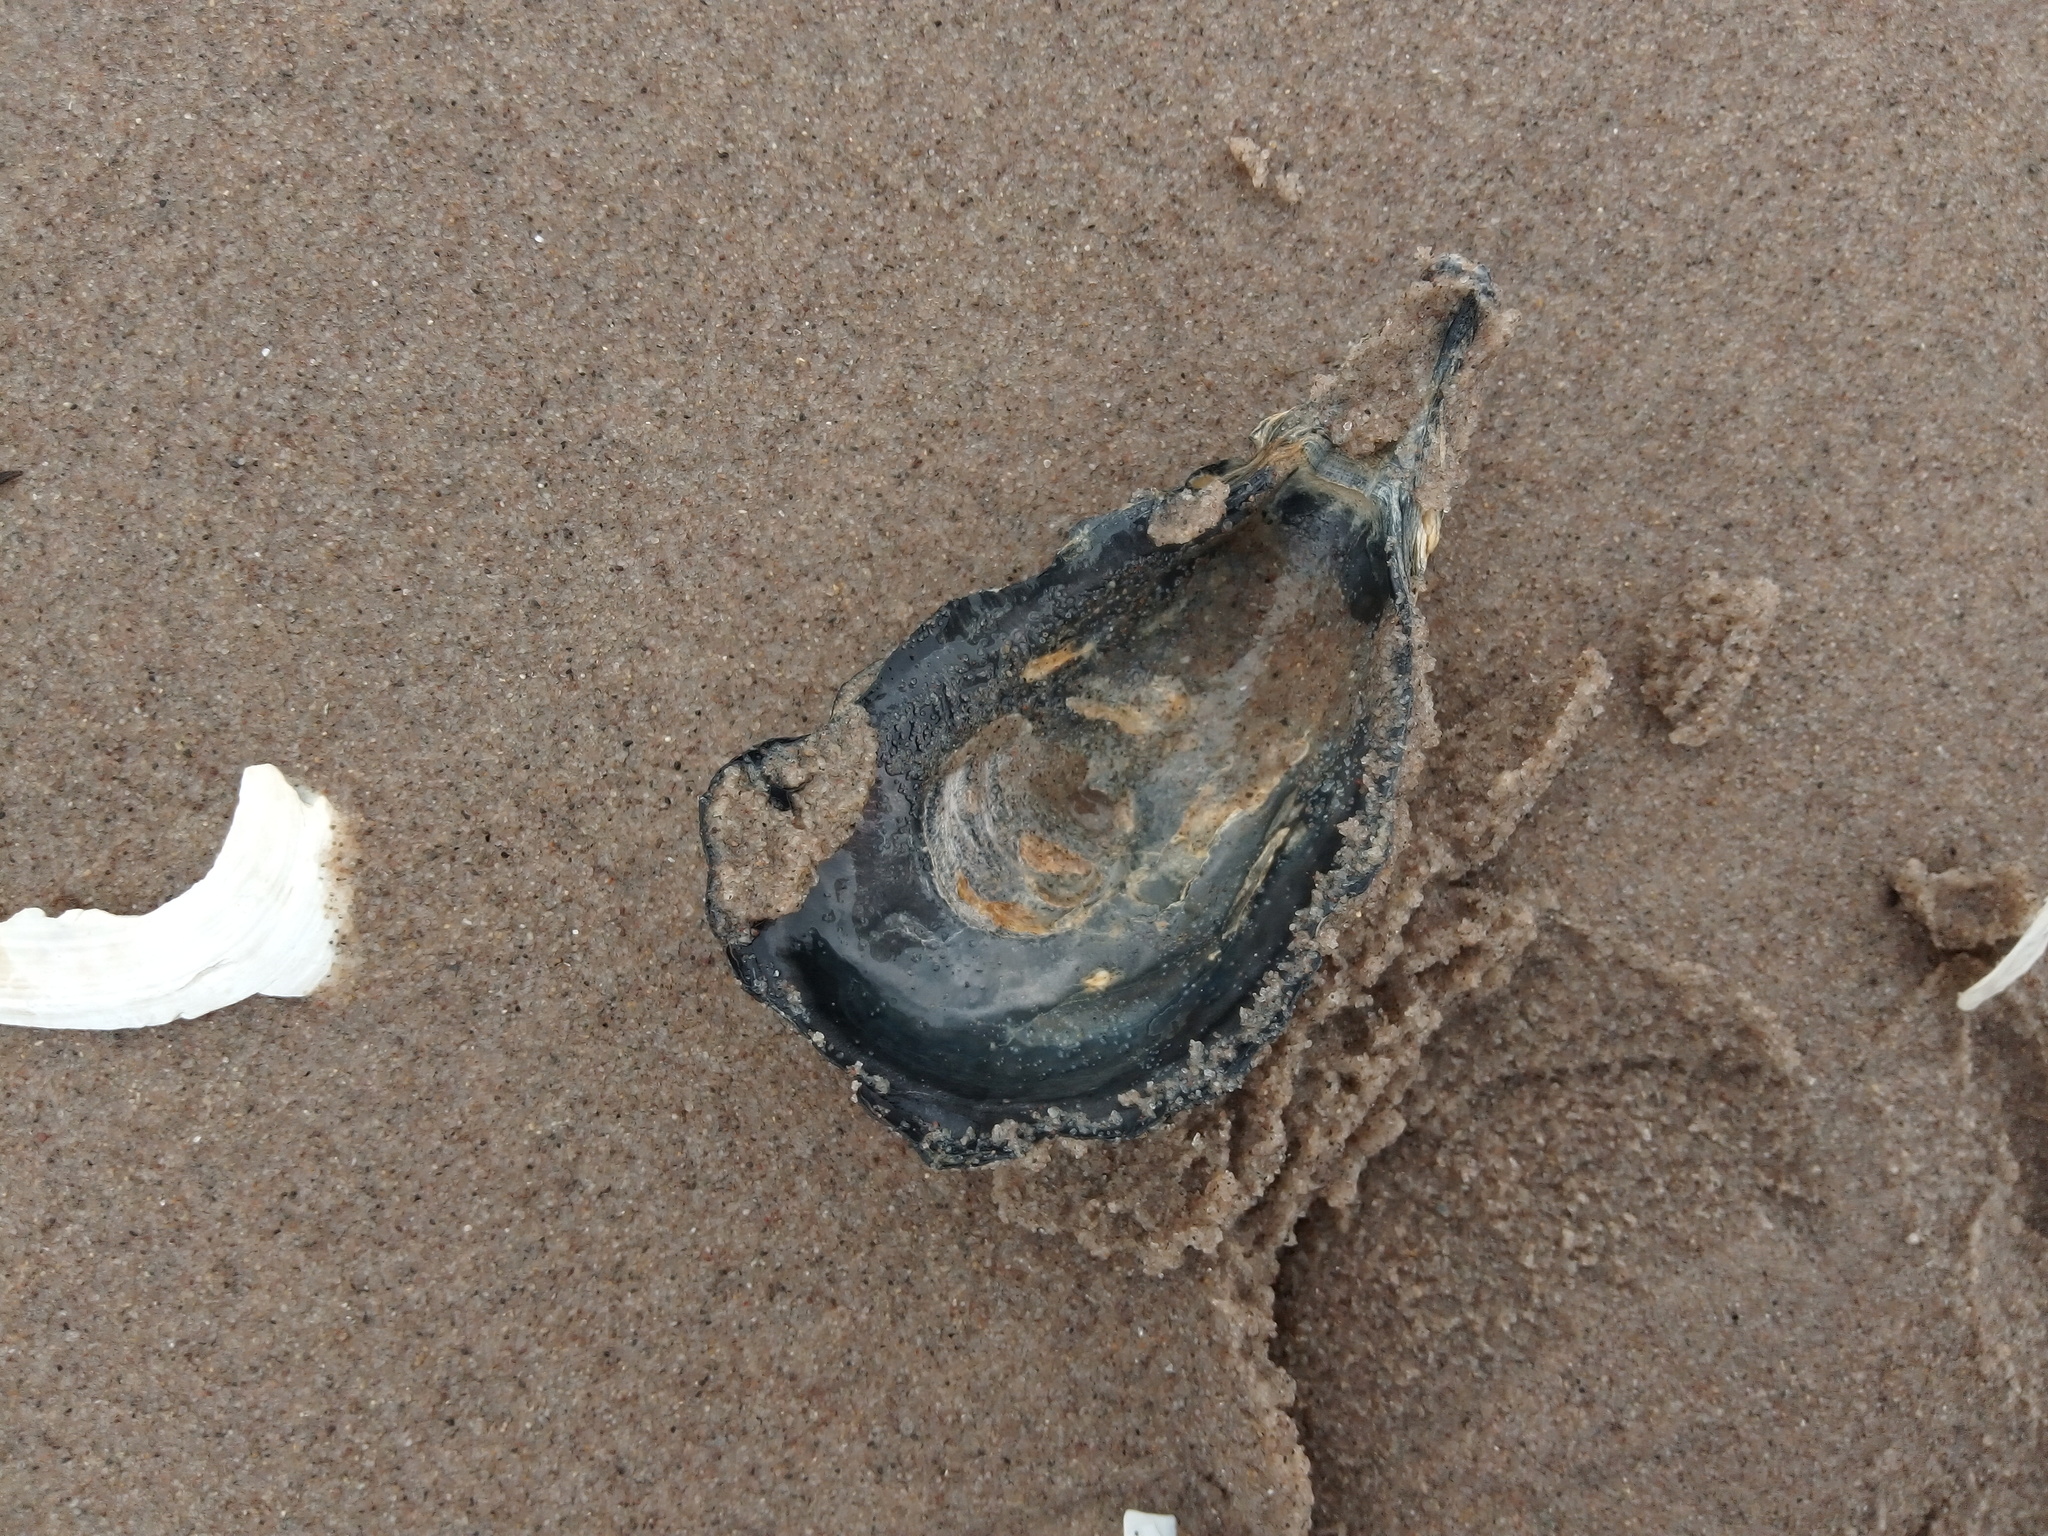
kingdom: Animalia
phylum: Mollusca
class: Bivalvia
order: Ostreida
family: Ostreidae
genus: Crassostrea
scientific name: Crassostrea virginica
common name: American oyster
